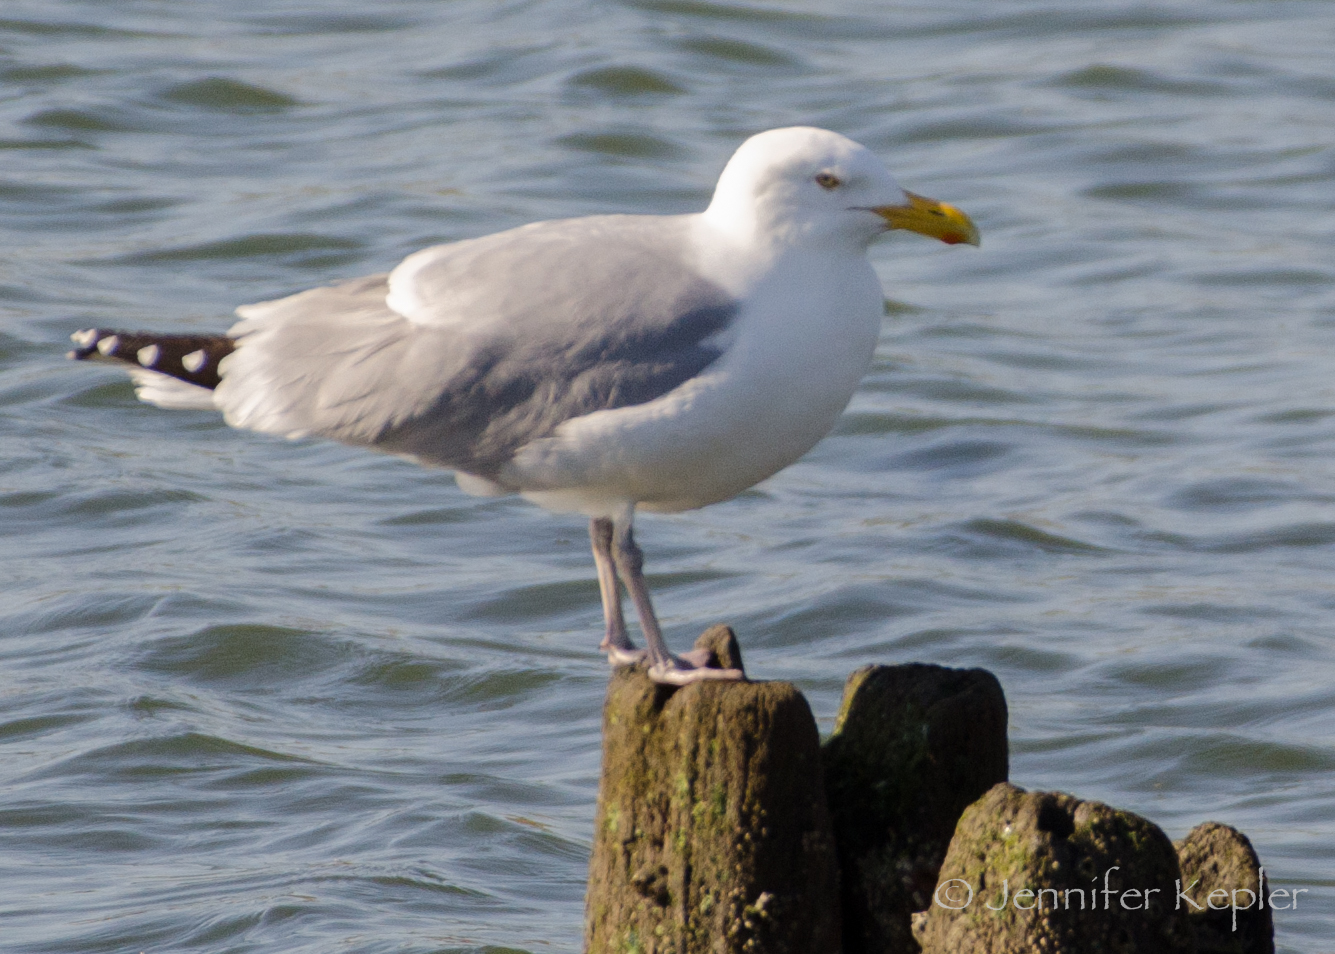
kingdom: Animalia
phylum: Chordata
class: Aves
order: Charadriiformes
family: Laridae
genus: Larus
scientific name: Larus argentatus
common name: Herring gull
